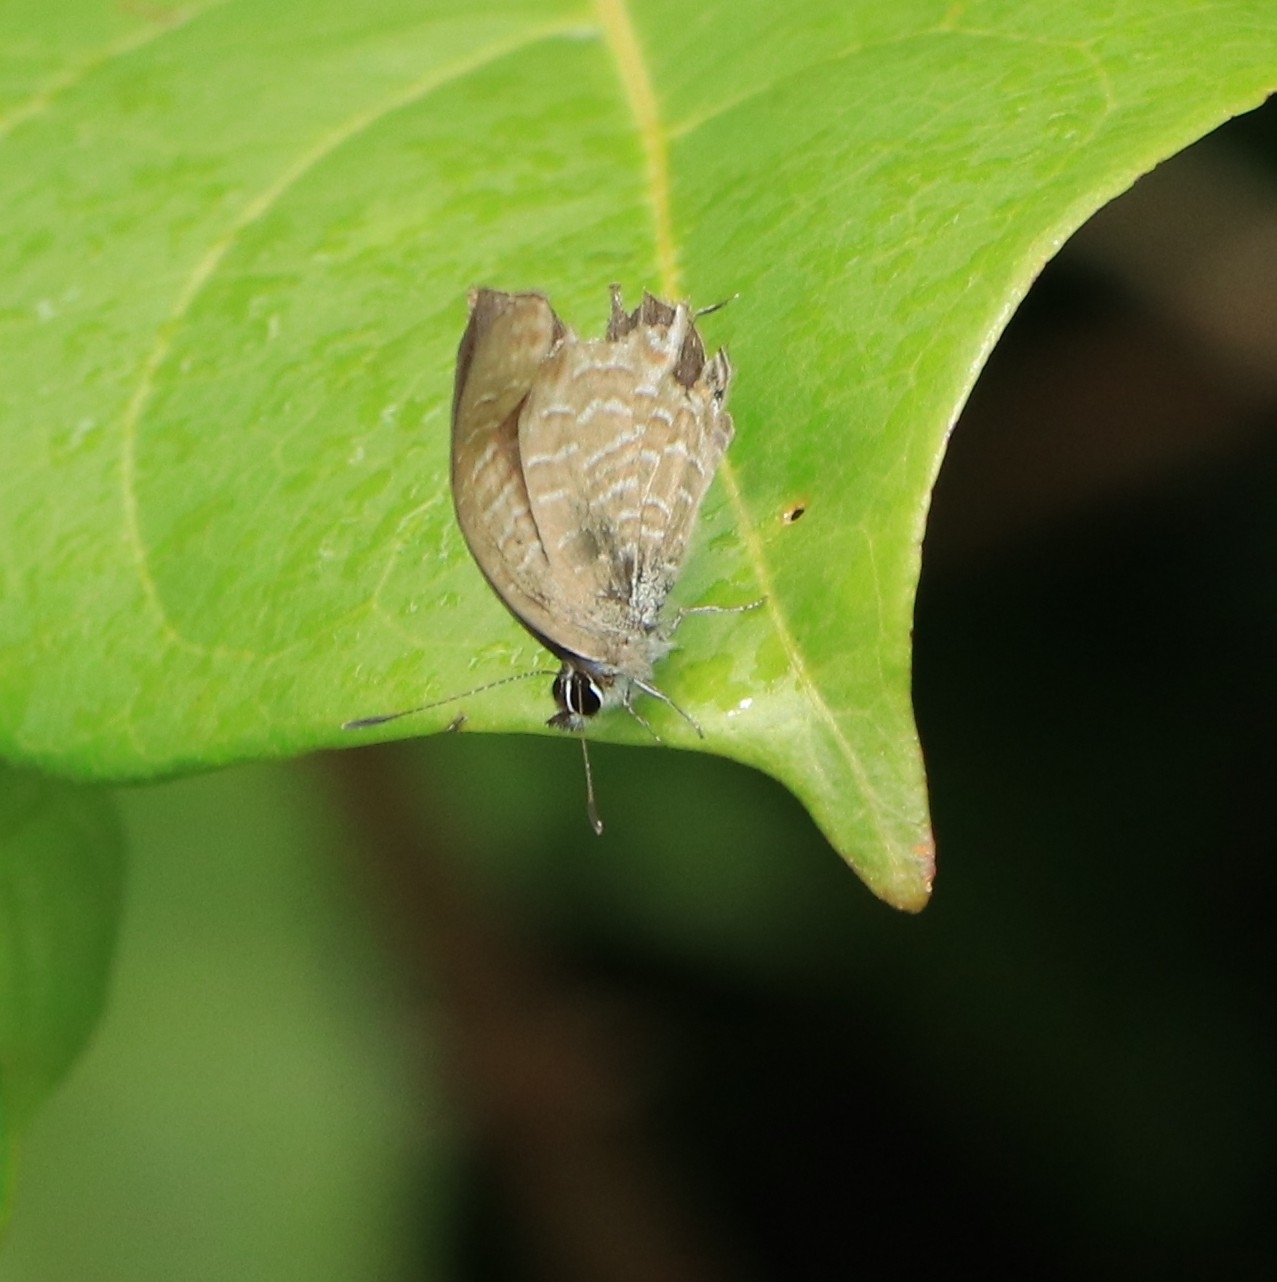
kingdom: Animalia
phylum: Arthropoda
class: Insecta
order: Lepidoptera
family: Lycaenidae
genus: Prosotas
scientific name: Prosotas nora
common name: Common line blue
